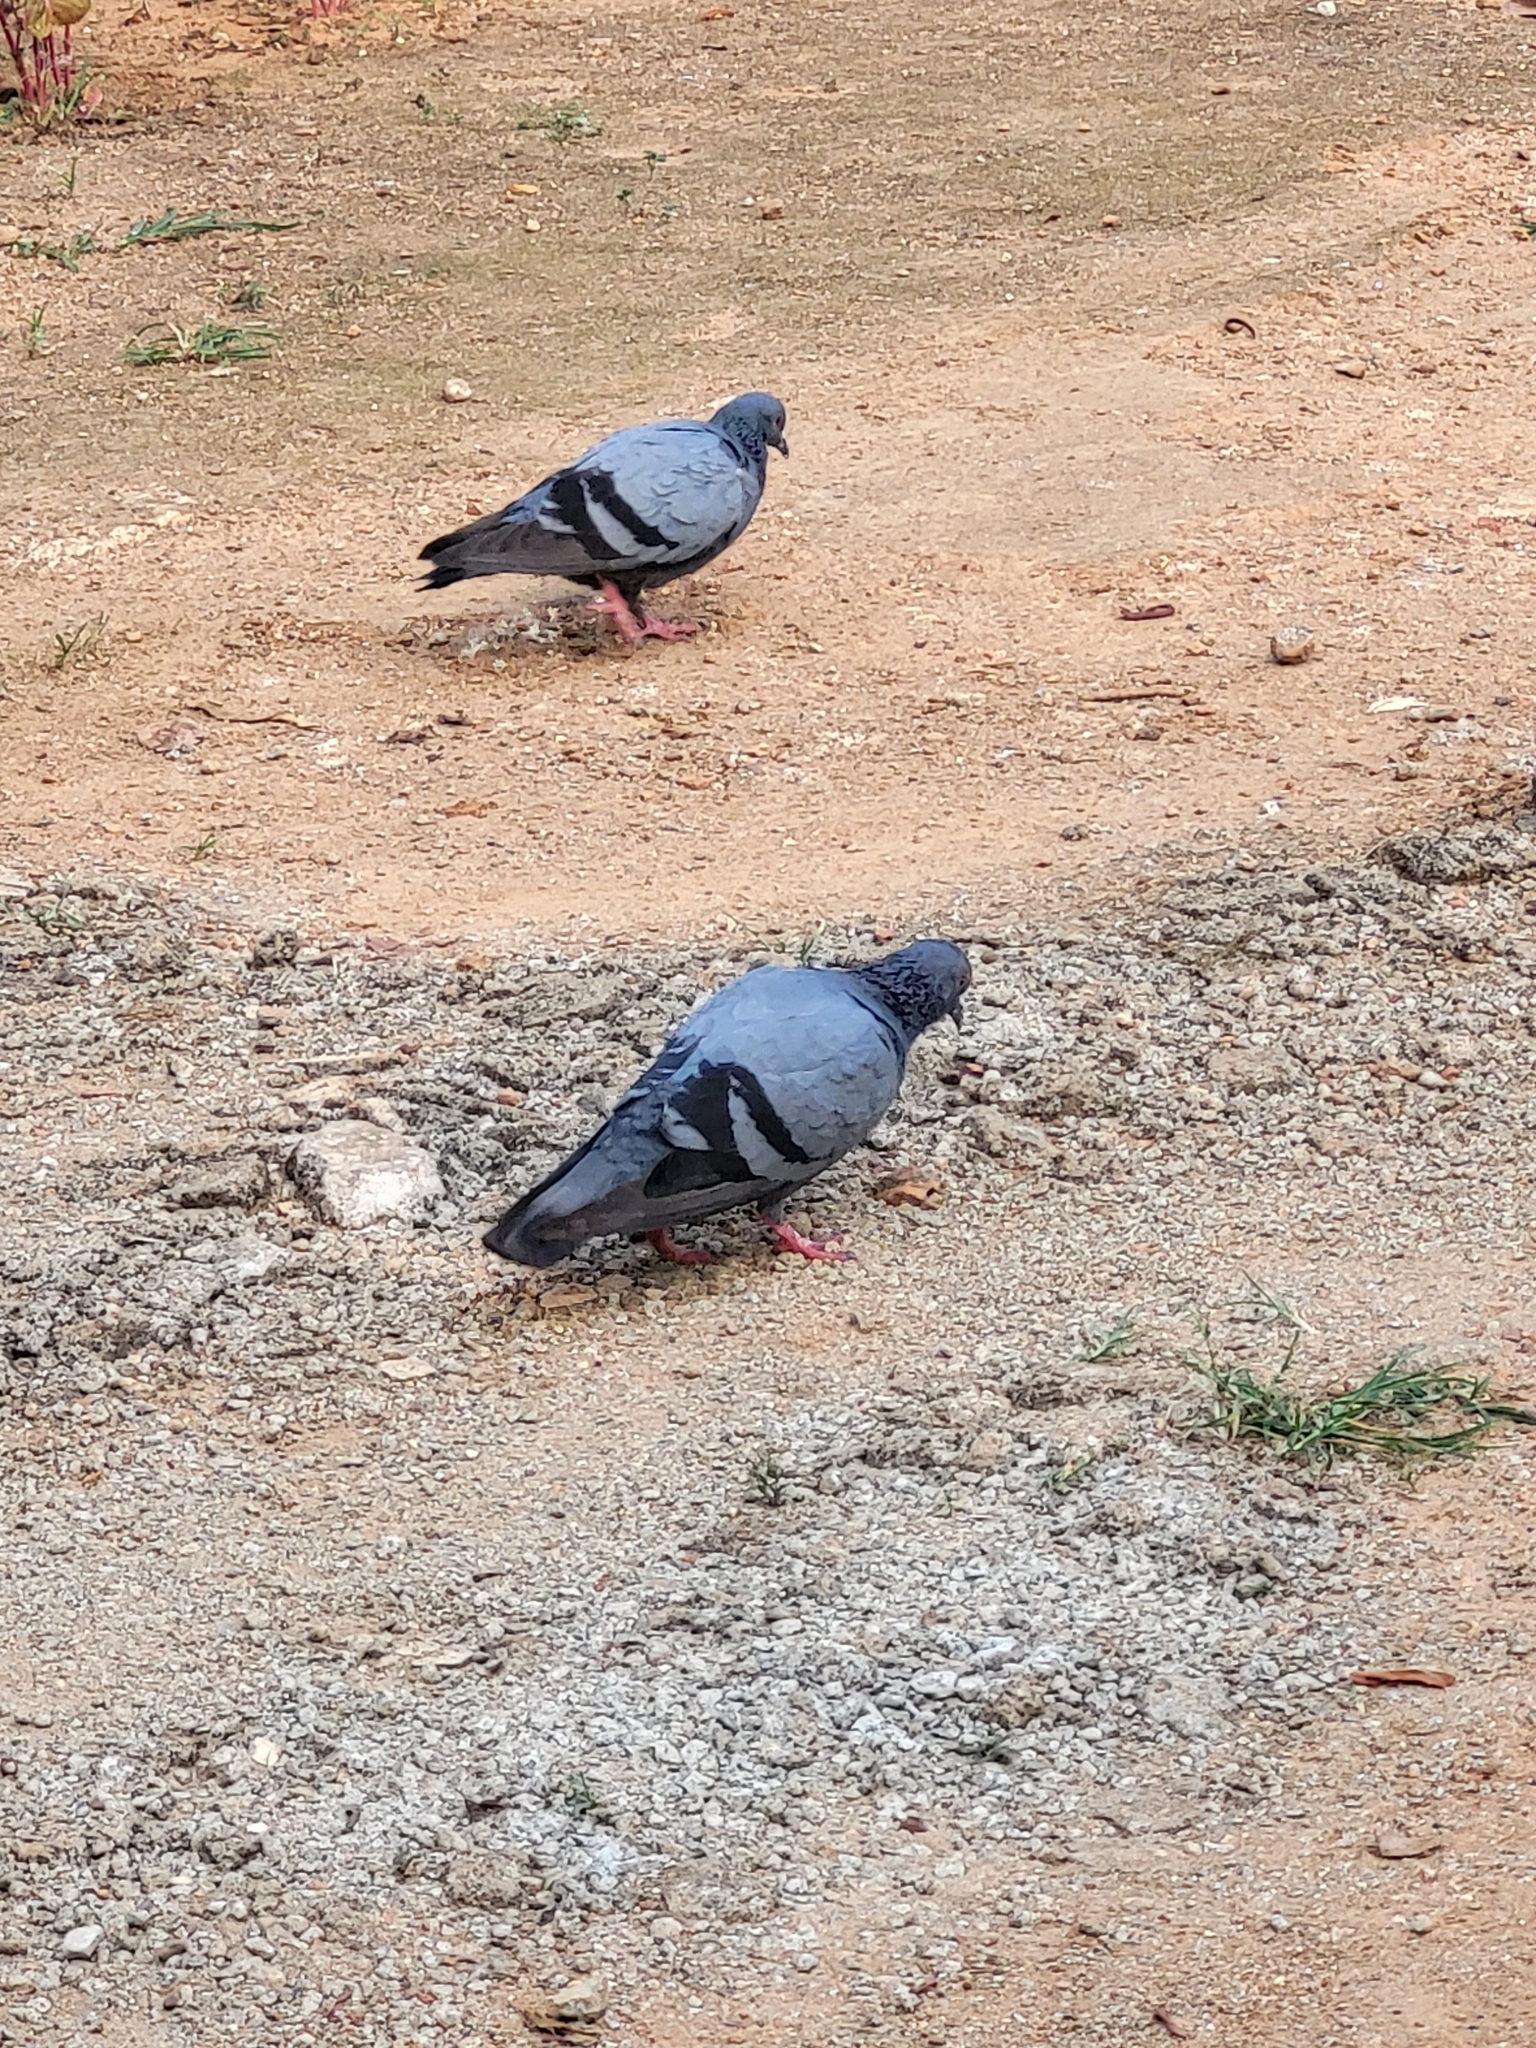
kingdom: Animalia
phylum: Chordata
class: Aves
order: Columbiformes
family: Columbidae
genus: Columba
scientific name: Columba livia
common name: Rock pigeon
